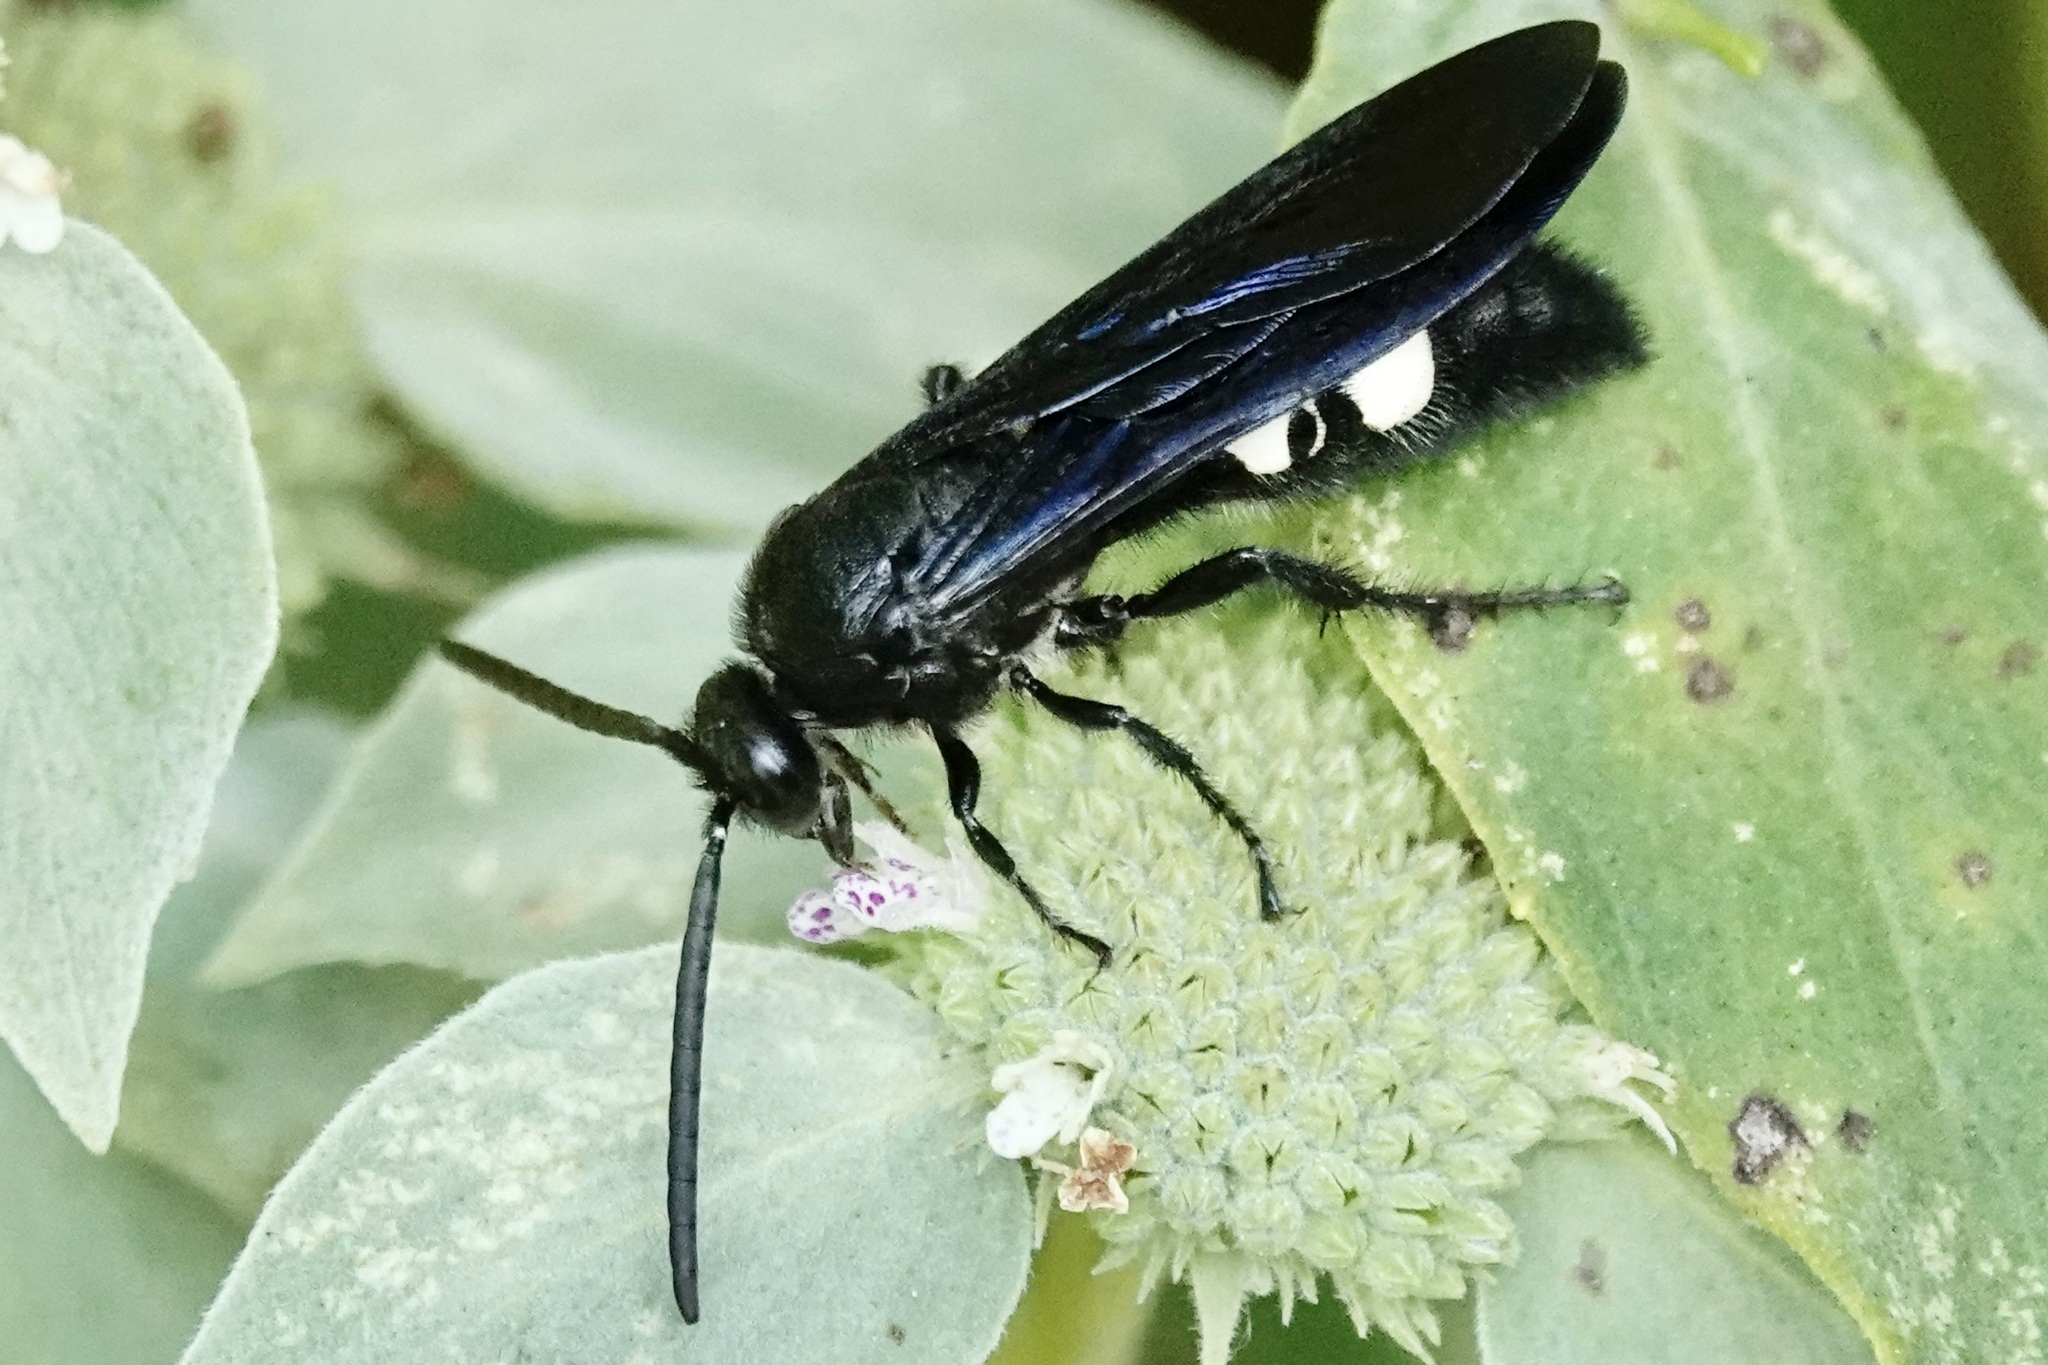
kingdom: Animalia
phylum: Arthropoda
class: Insecta
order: Hymenoptera
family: Scoliidae
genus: Scolia
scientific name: Scolia bicincta
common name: Double-banded scoliid wasp
